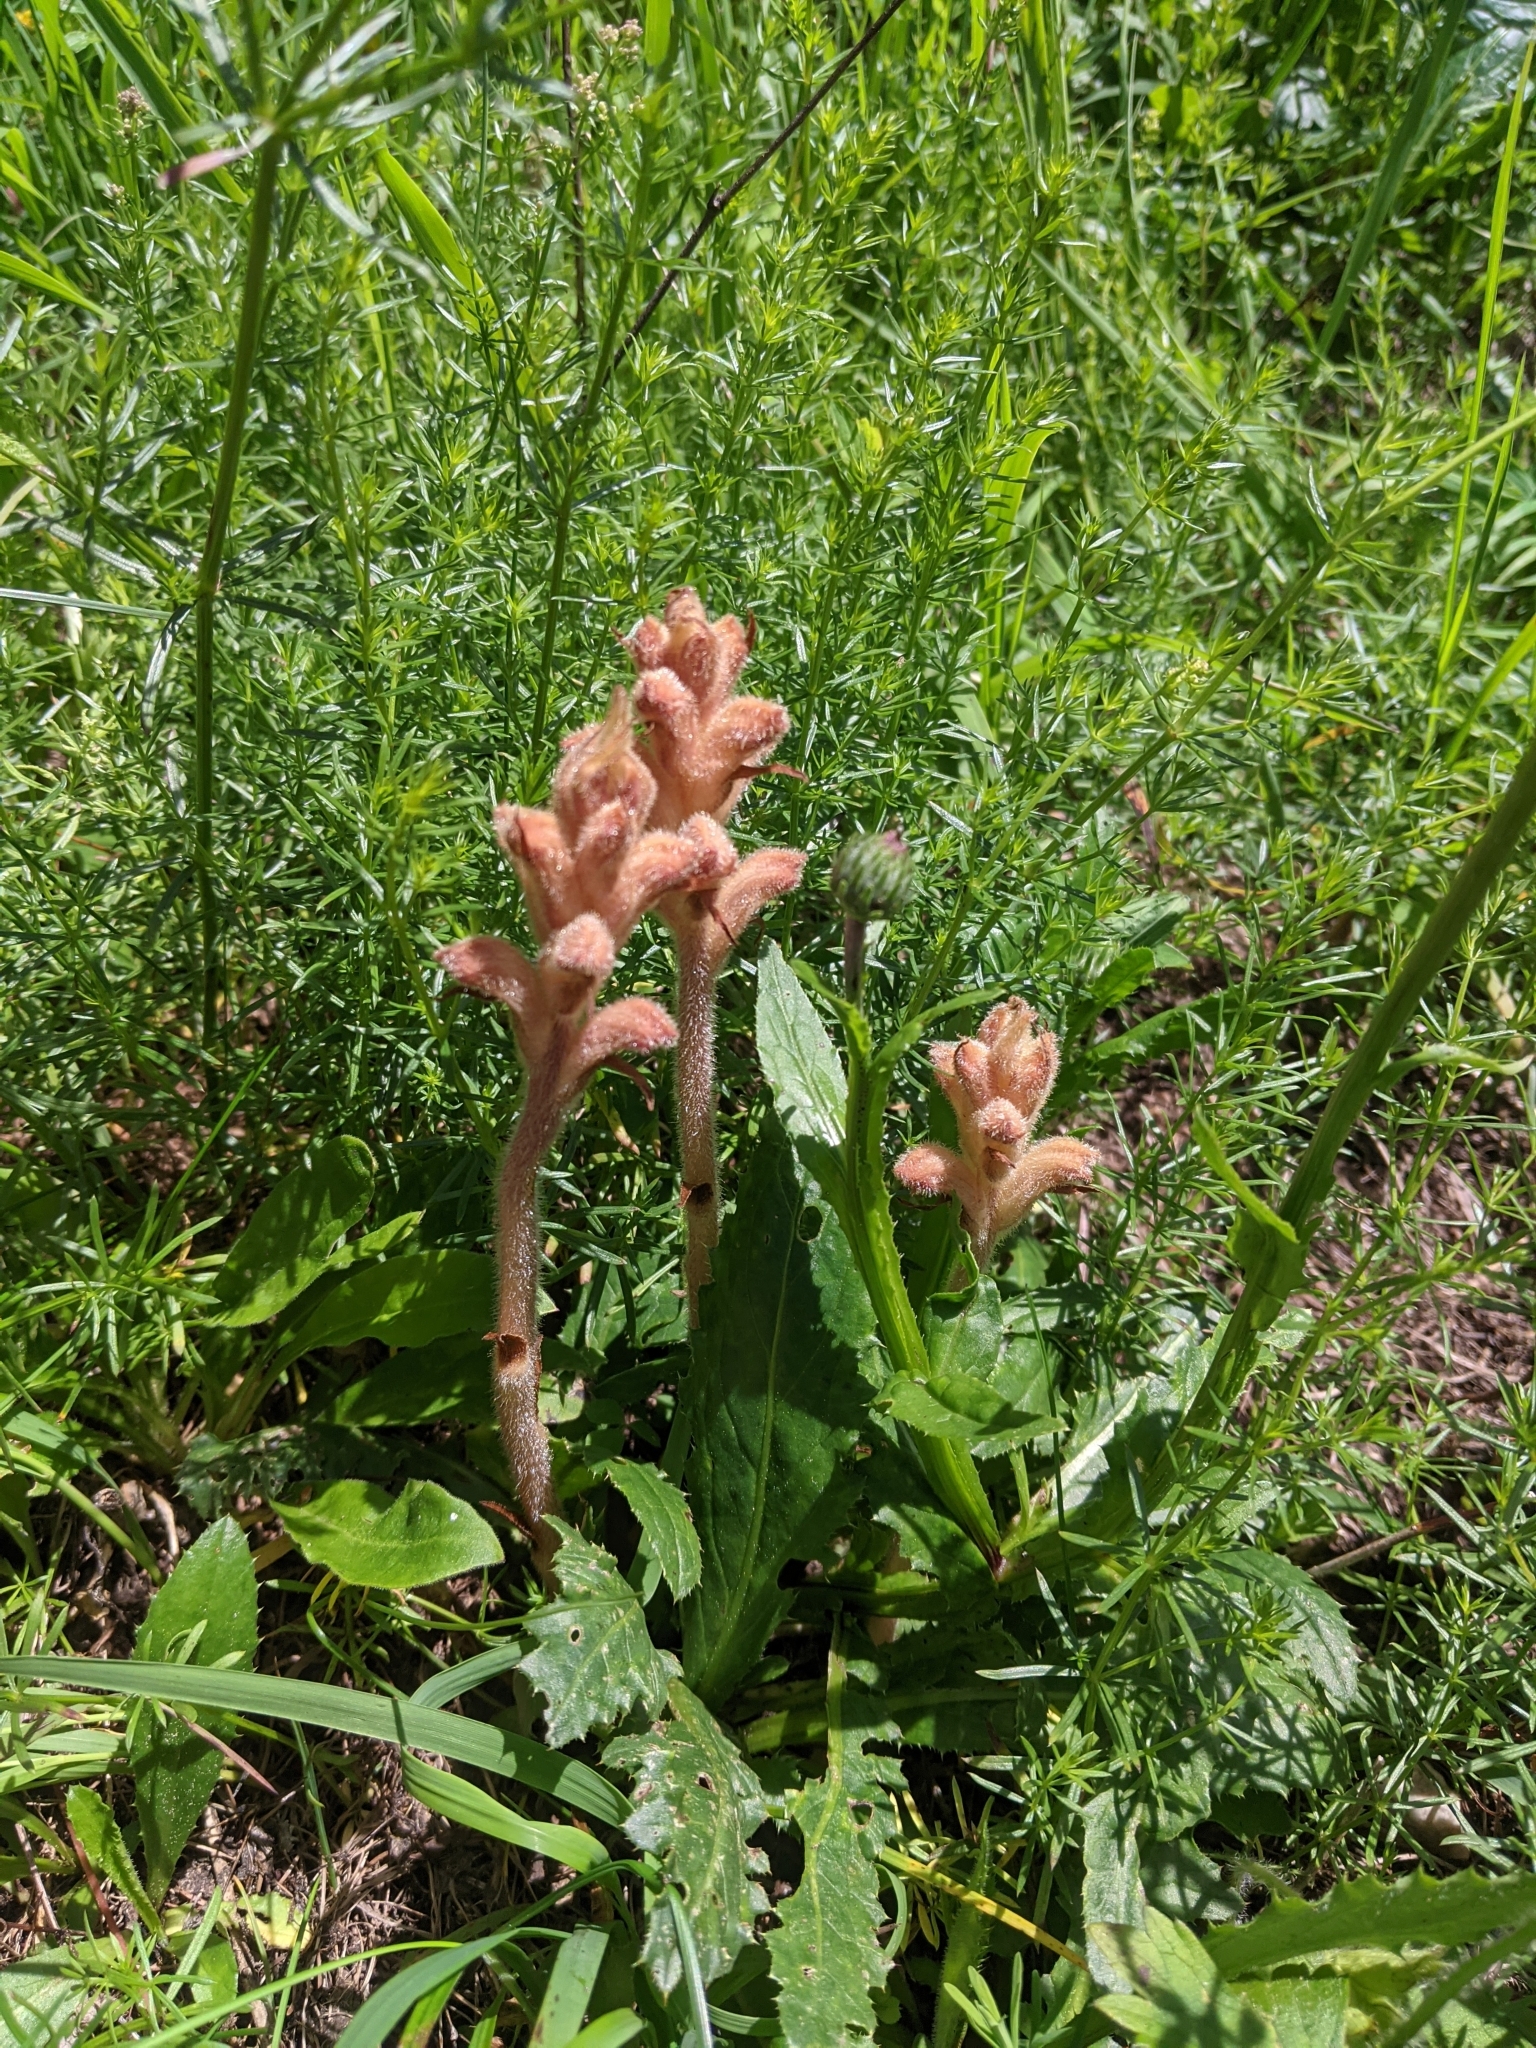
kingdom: Plantae
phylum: Tracheophyta
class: Magnoliopsida
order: Lamiales
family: Orobanchaceae
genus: Orobanche
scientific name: Orobanche caryophyllacea
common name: Bedstraw broomrape
